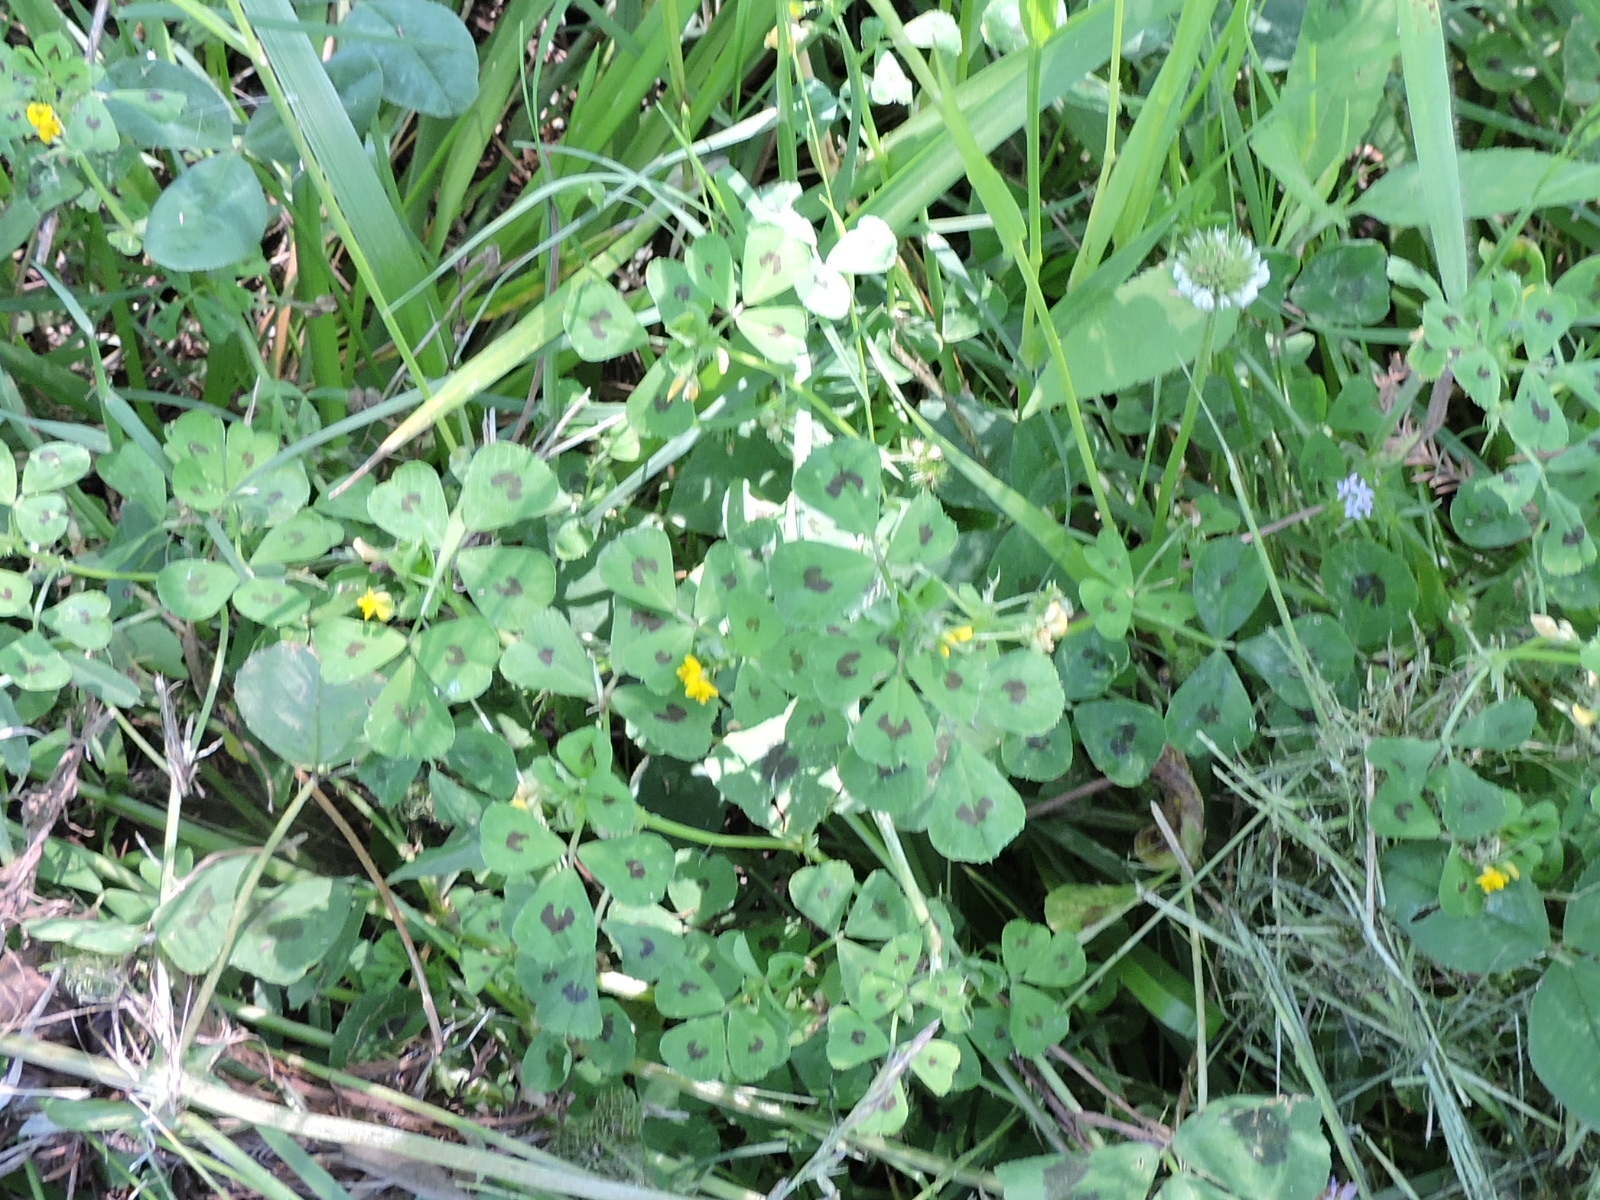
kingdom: Plantae
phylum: Tracheophyta
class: Magnoliopsida
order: Fabales
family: Fabaceae
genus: Medicago
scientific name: Medicago arabica
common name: Spotted medick
